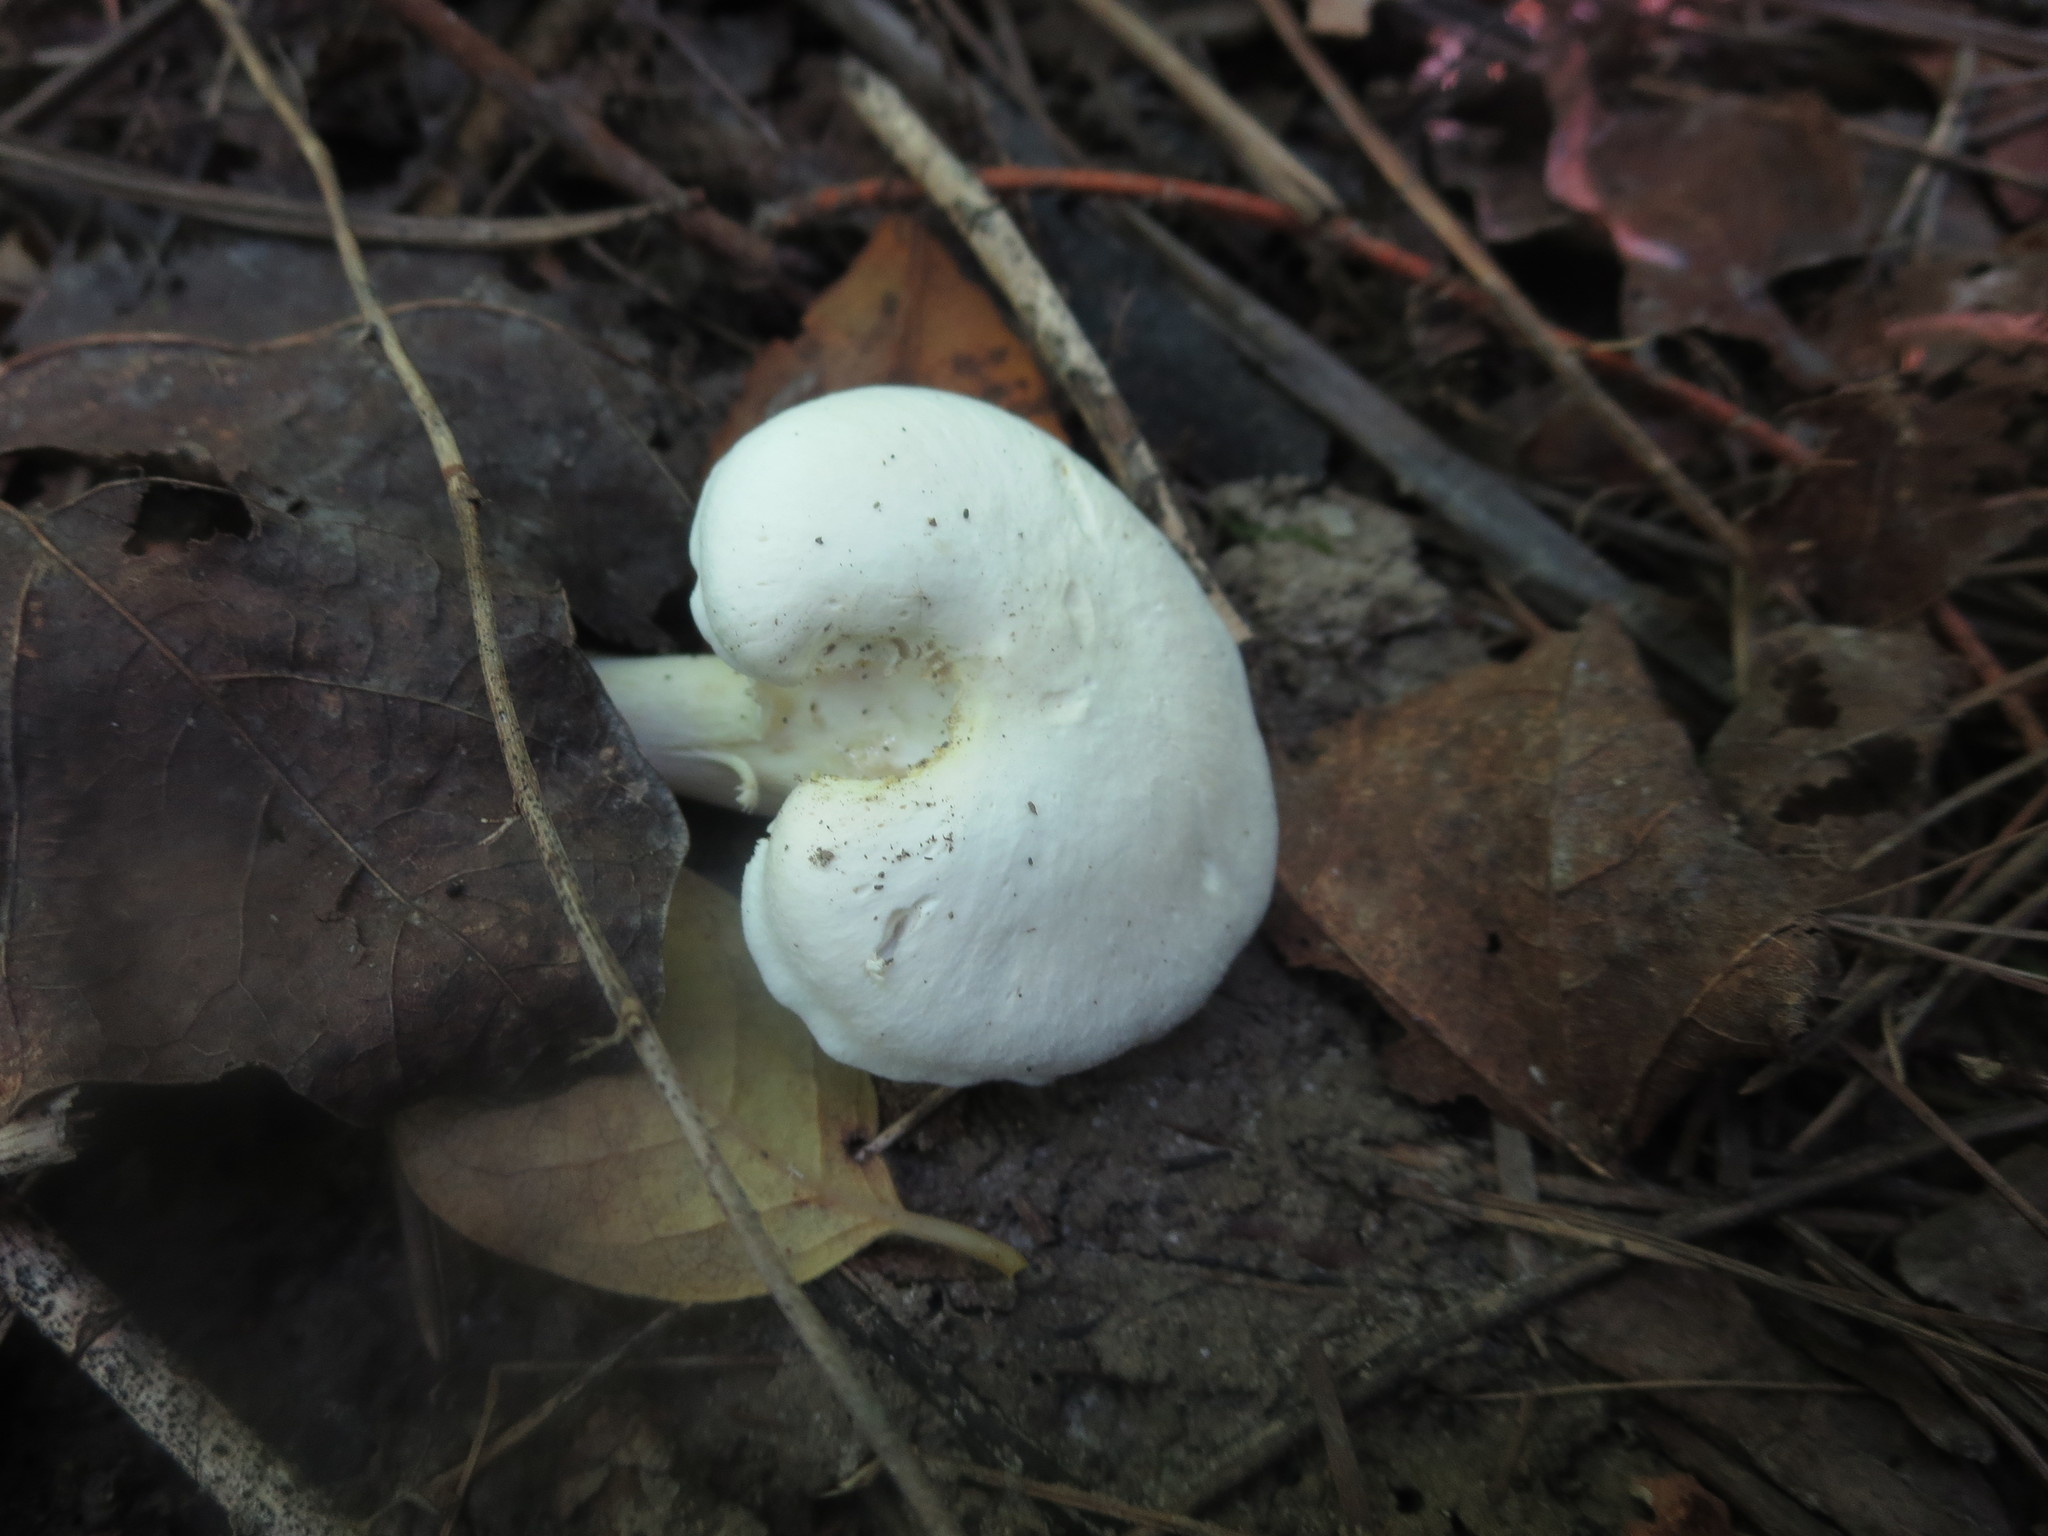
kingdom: Fungi
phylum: Basidiomycota
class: Agaricomycetes
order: Agaricales
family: Hygrophoraceae
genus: Hygrocybe
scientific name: Hygrocybe angustifolia
